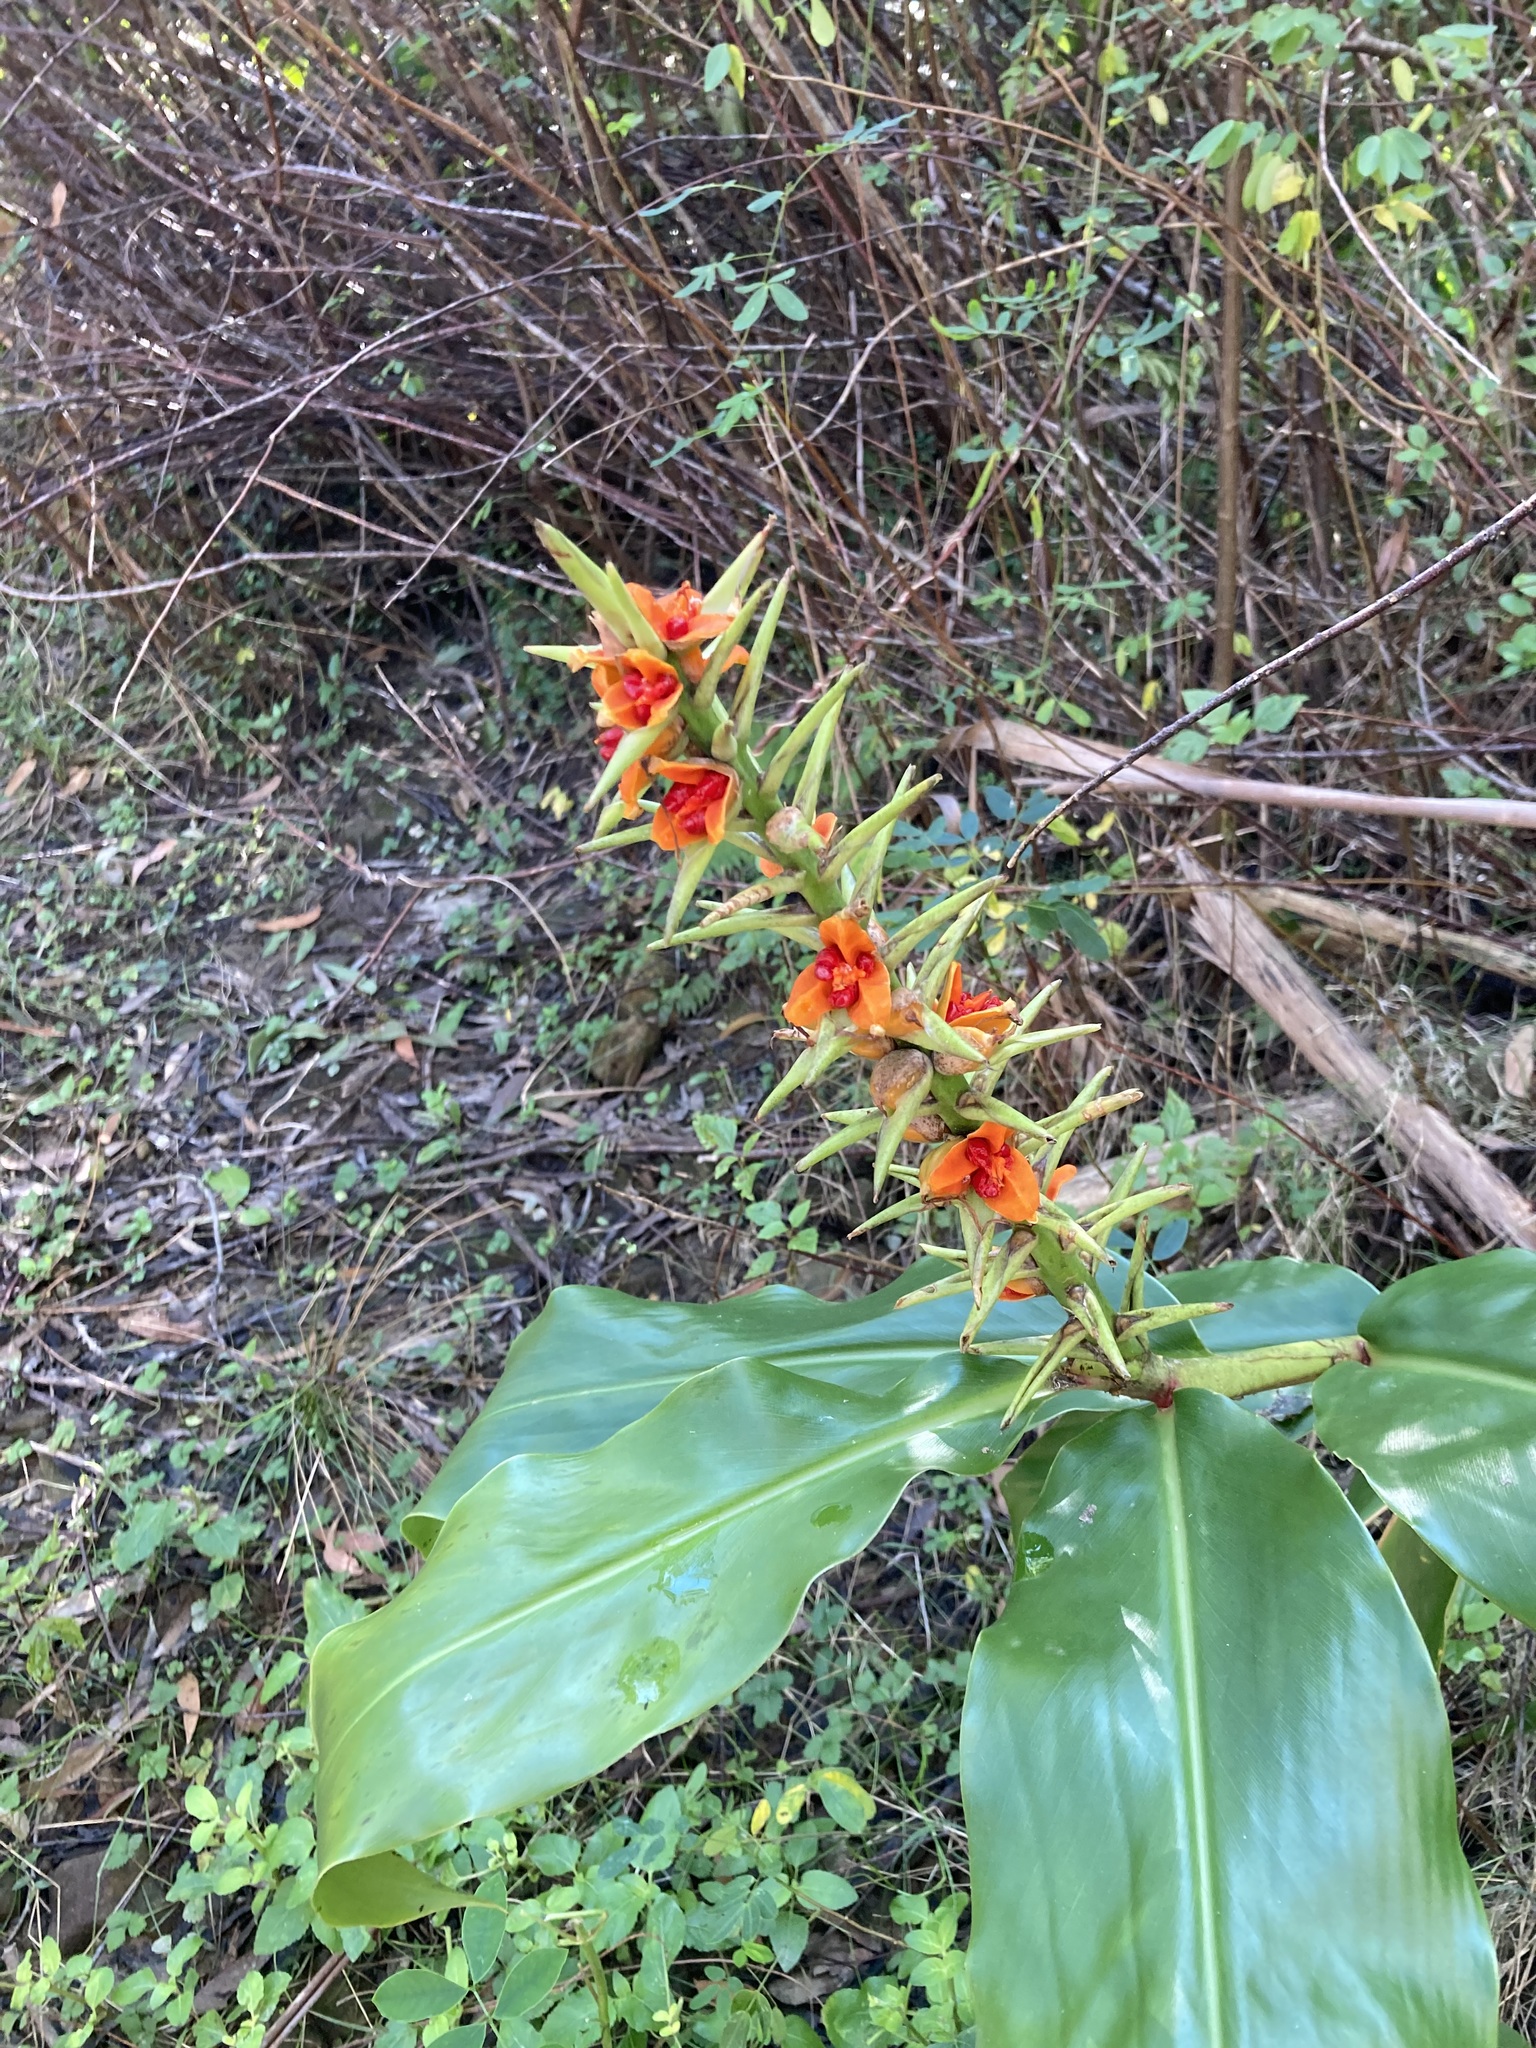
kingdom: Plantae
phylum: Tracheophyta
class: Liliopsida
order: Zingiberales
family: Zingiberaceae
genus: Hedychium
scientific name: Hedychium gardnerianum
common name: Himalayan ginger
